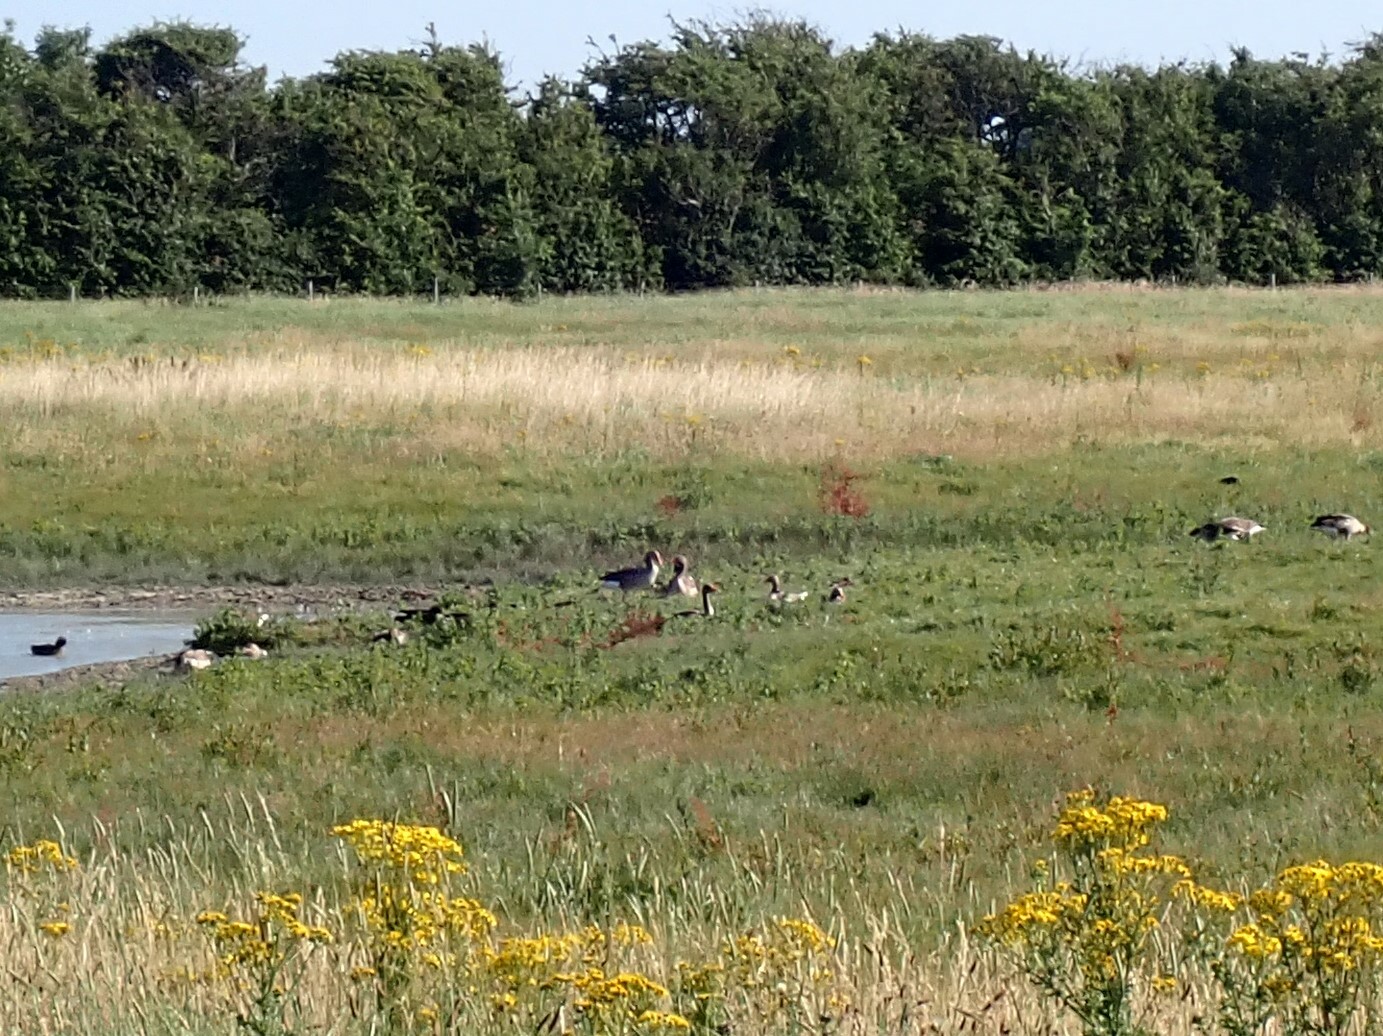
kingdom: Animalia
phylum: Chordata
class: Aves
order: Anseriformes
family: Anatidae
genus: Anser
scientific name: Anser anser
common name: Greylag goose
